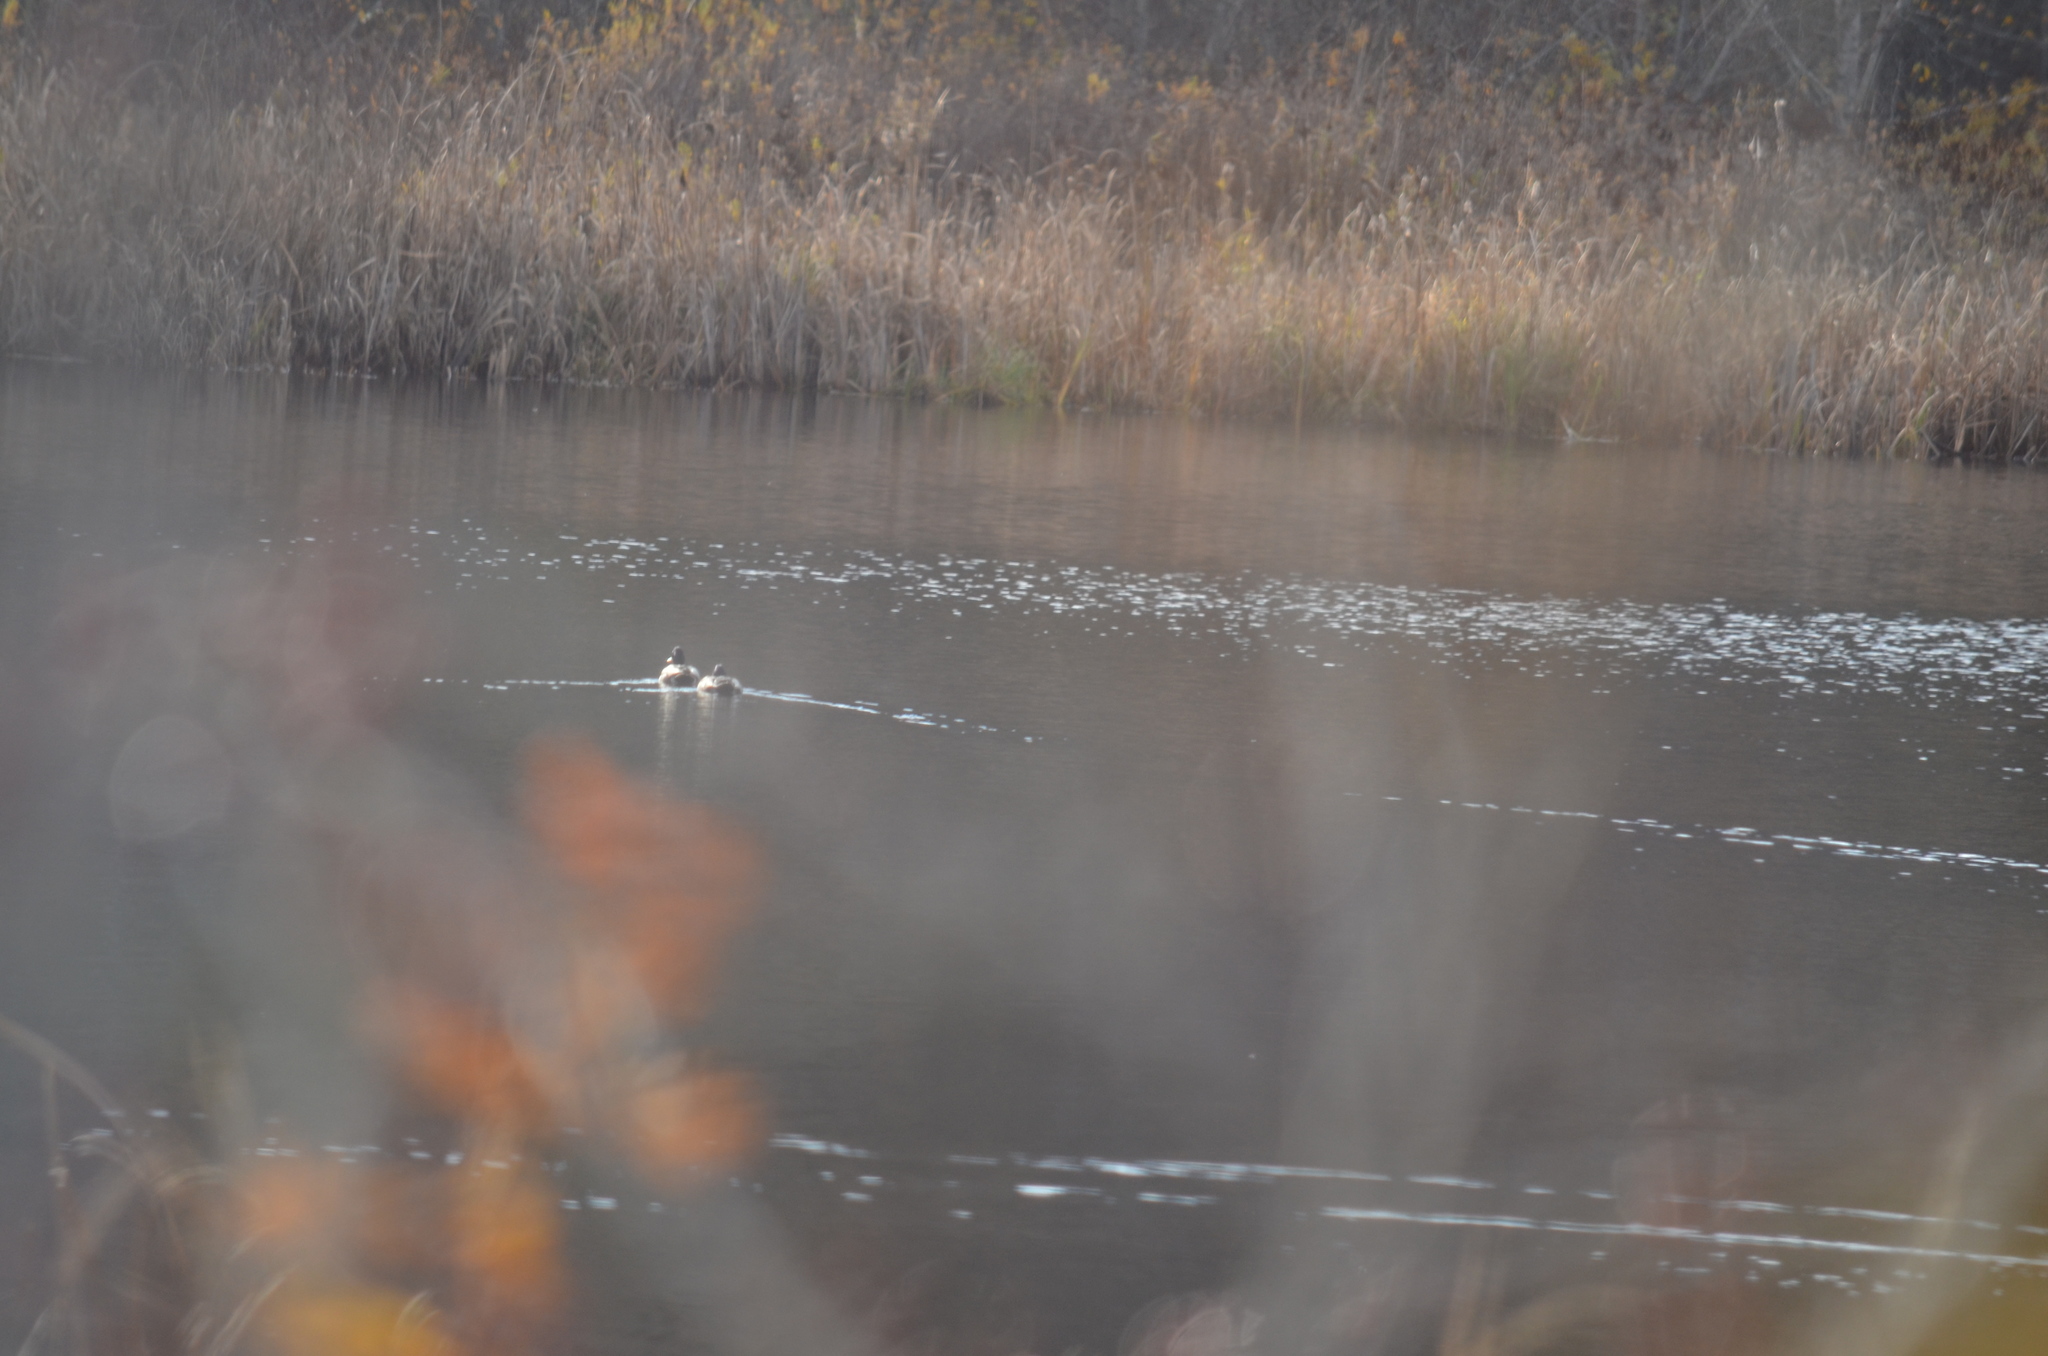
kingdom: Animalia
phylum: Chordata
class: Aves
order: Anseriformes
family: Anatidae
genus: Aythya
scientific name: Aythya collaris
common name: Ring-necked duck
